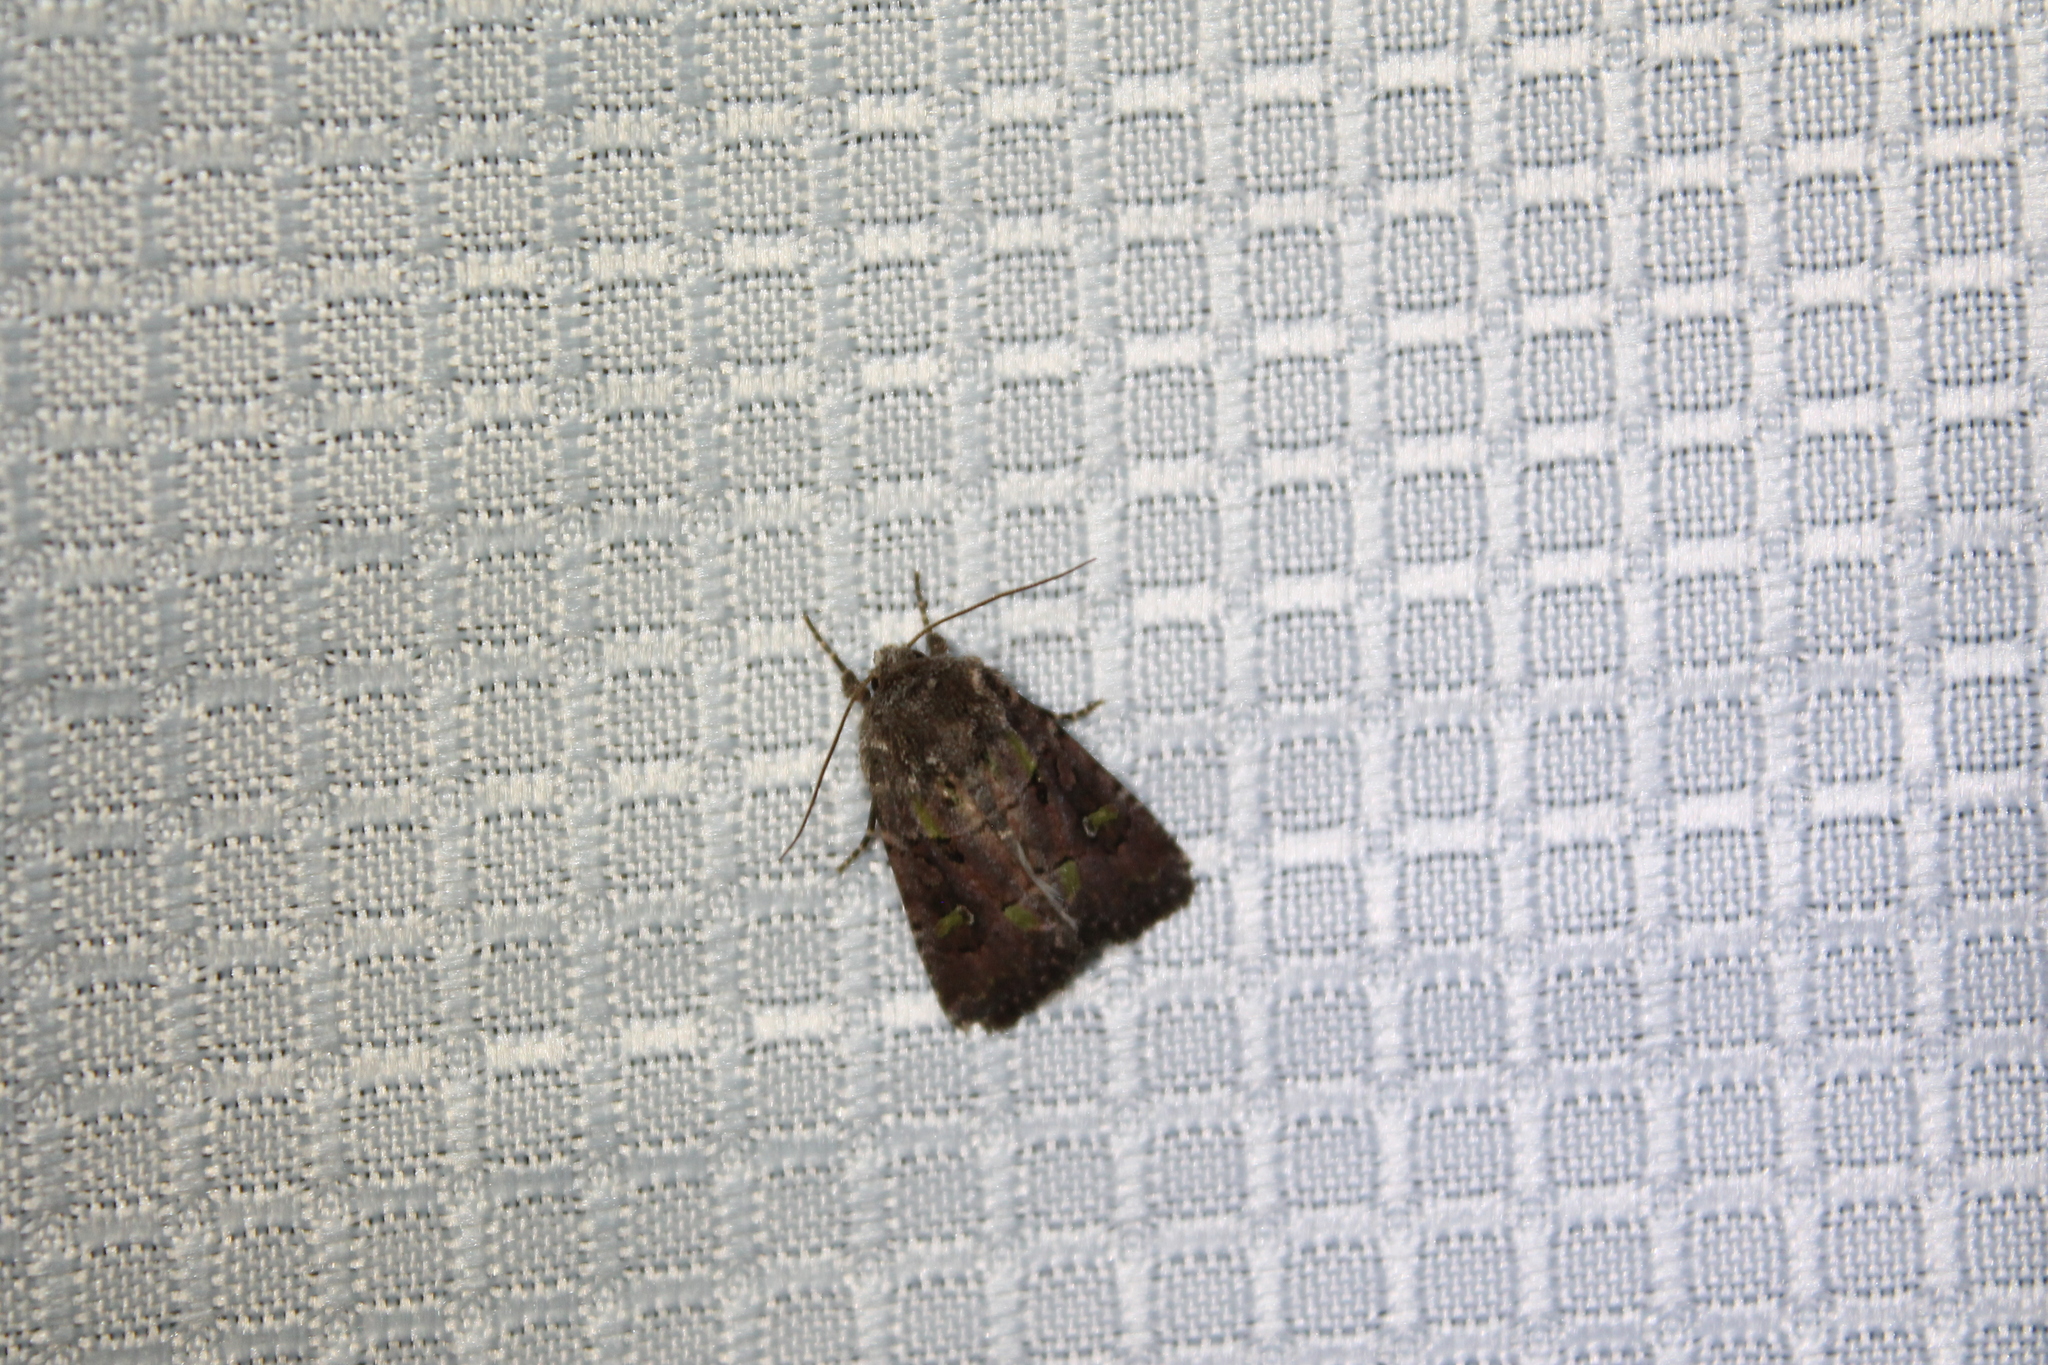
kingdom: Animalia
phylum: Arthropoda
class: Insecta
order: Lepidoptera
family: Noctuidae
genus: Lacinipolia
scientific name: Lacinipolia renigera
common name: Kidney-spotted minor
